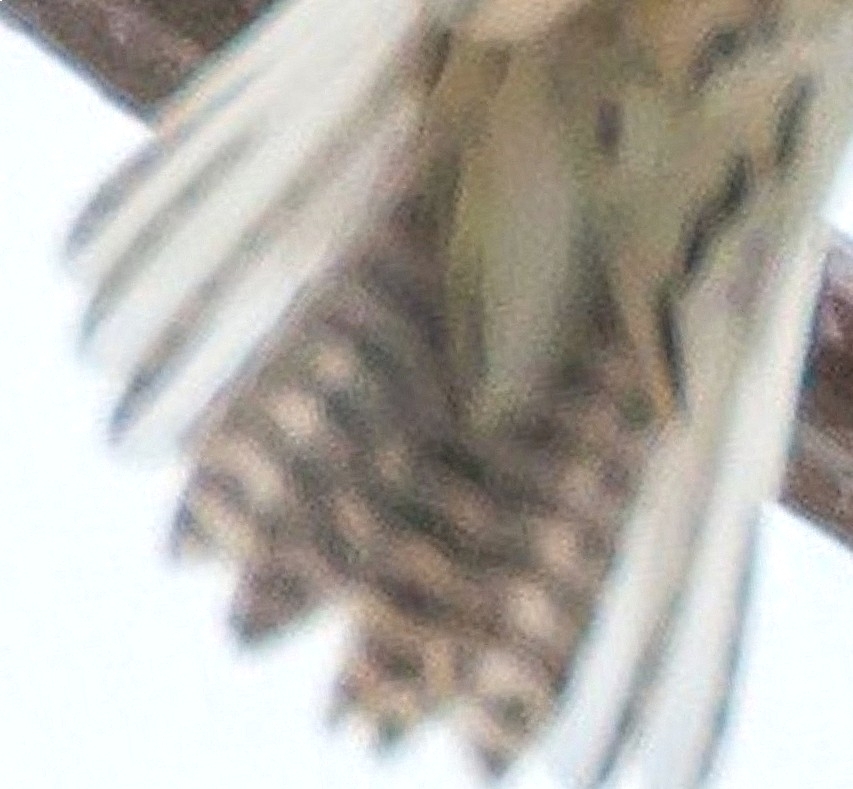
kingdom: Animalia
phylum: Chordata
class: Aves
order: Passeriformes
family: Icteridae
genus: Sturnella
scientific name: Sturnella neglecta
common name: Western meadowlark
